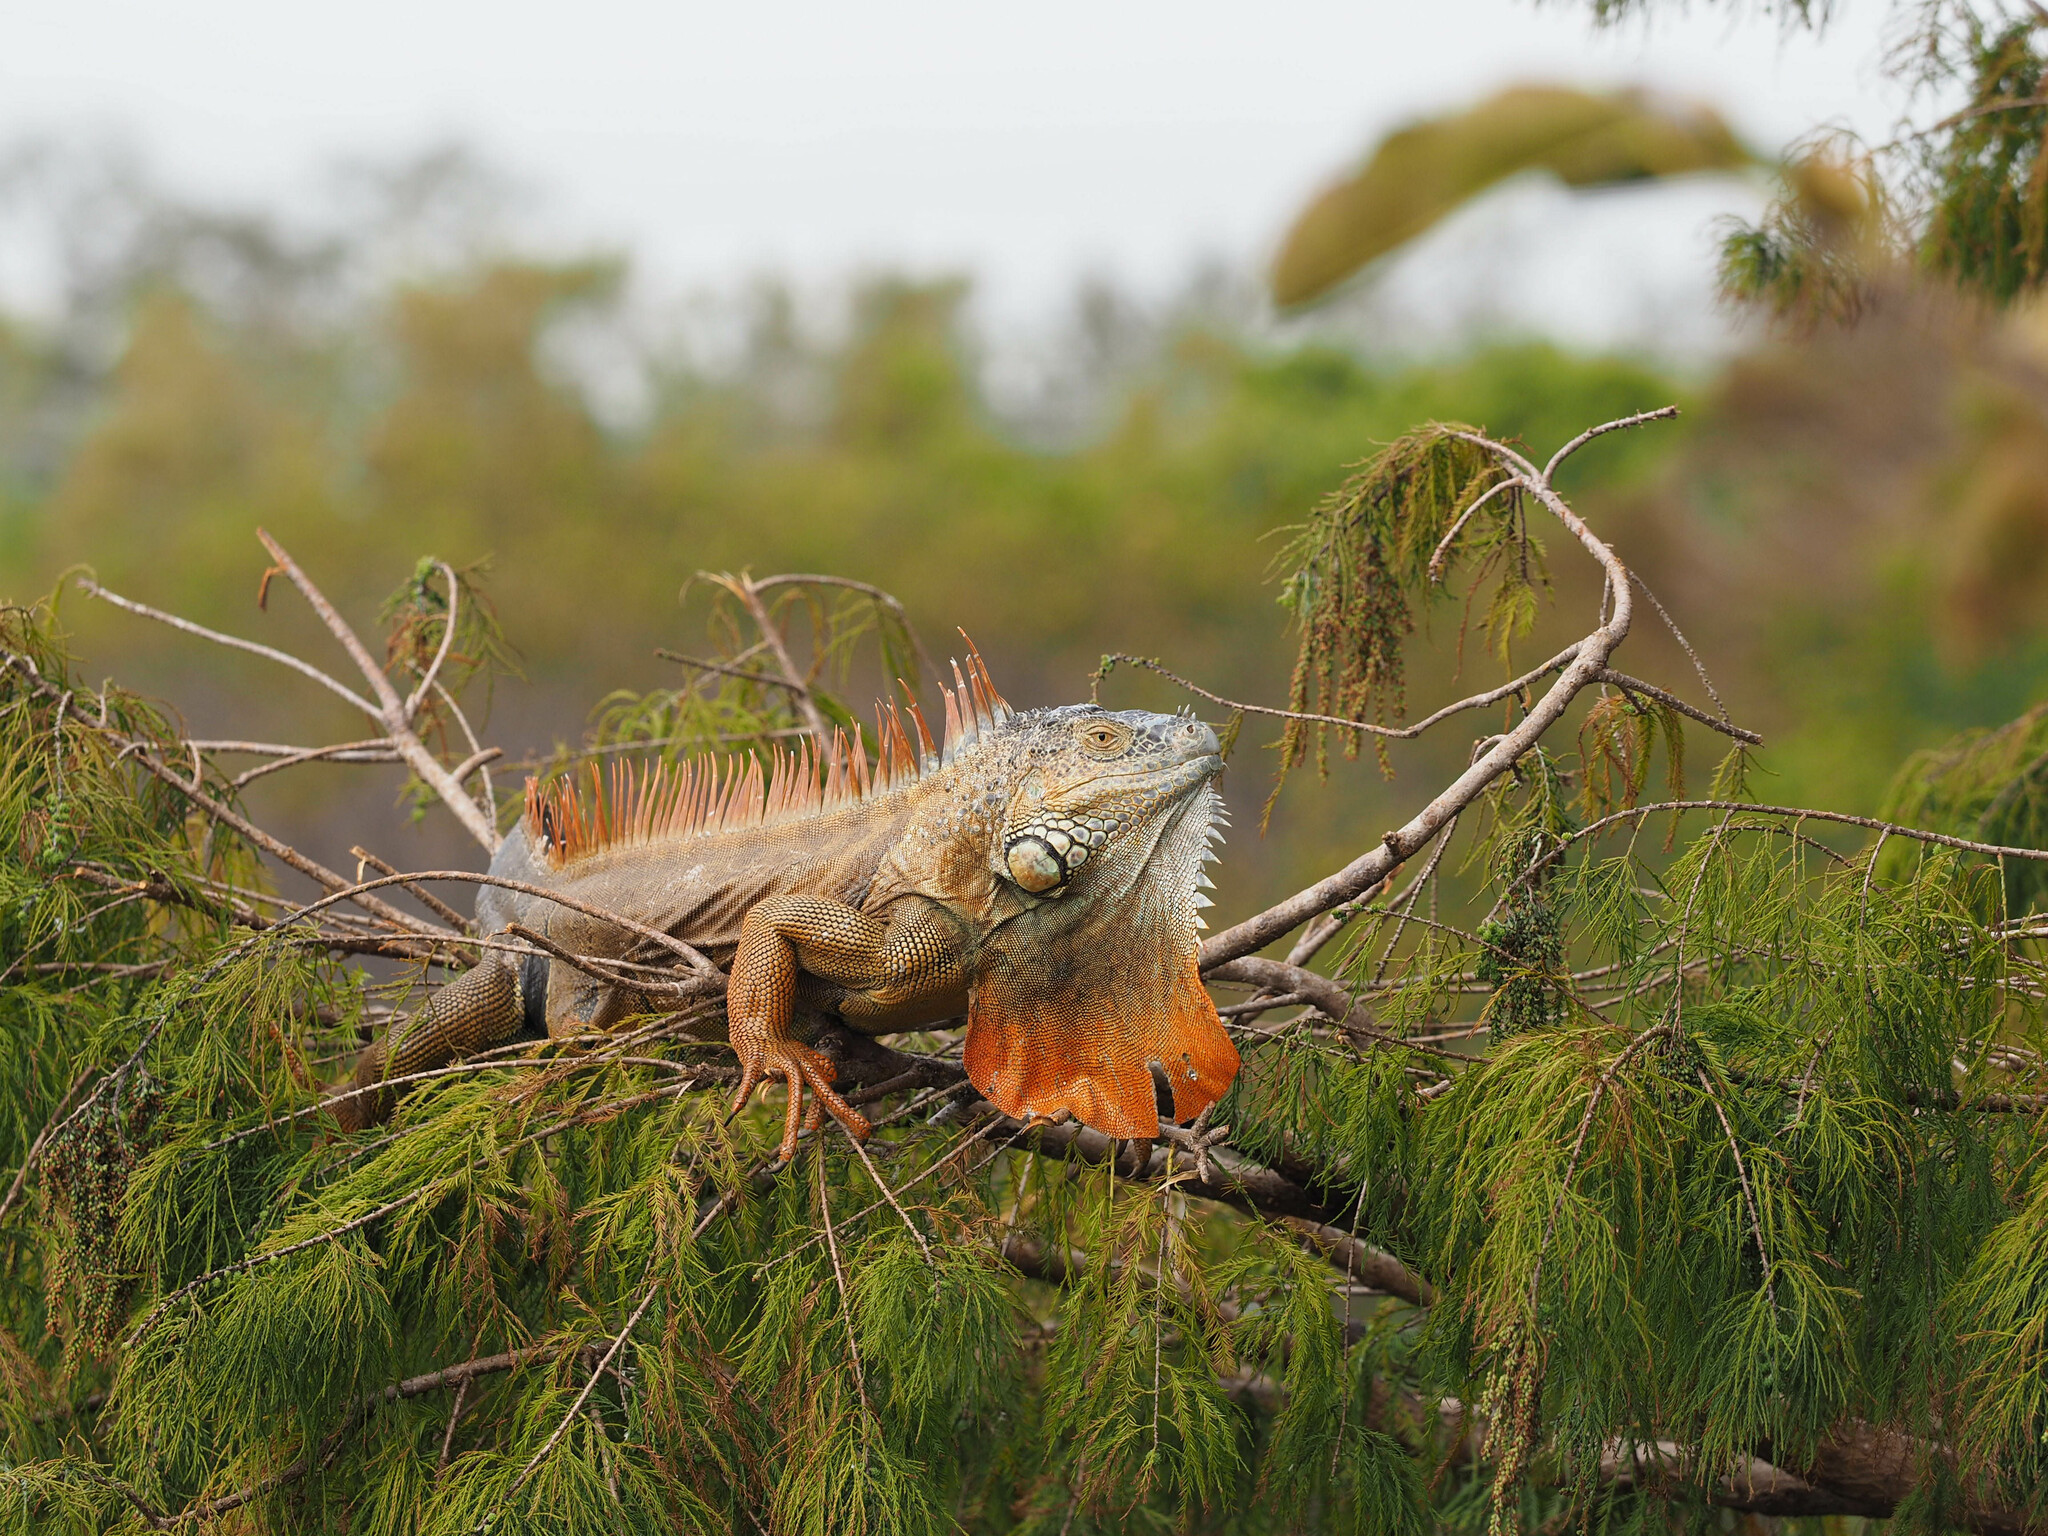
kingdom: Animalia
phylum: Chordata
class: Squamata
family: Iguanidae
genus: Iguana
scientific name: Iguana iguana
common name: Green iguana
